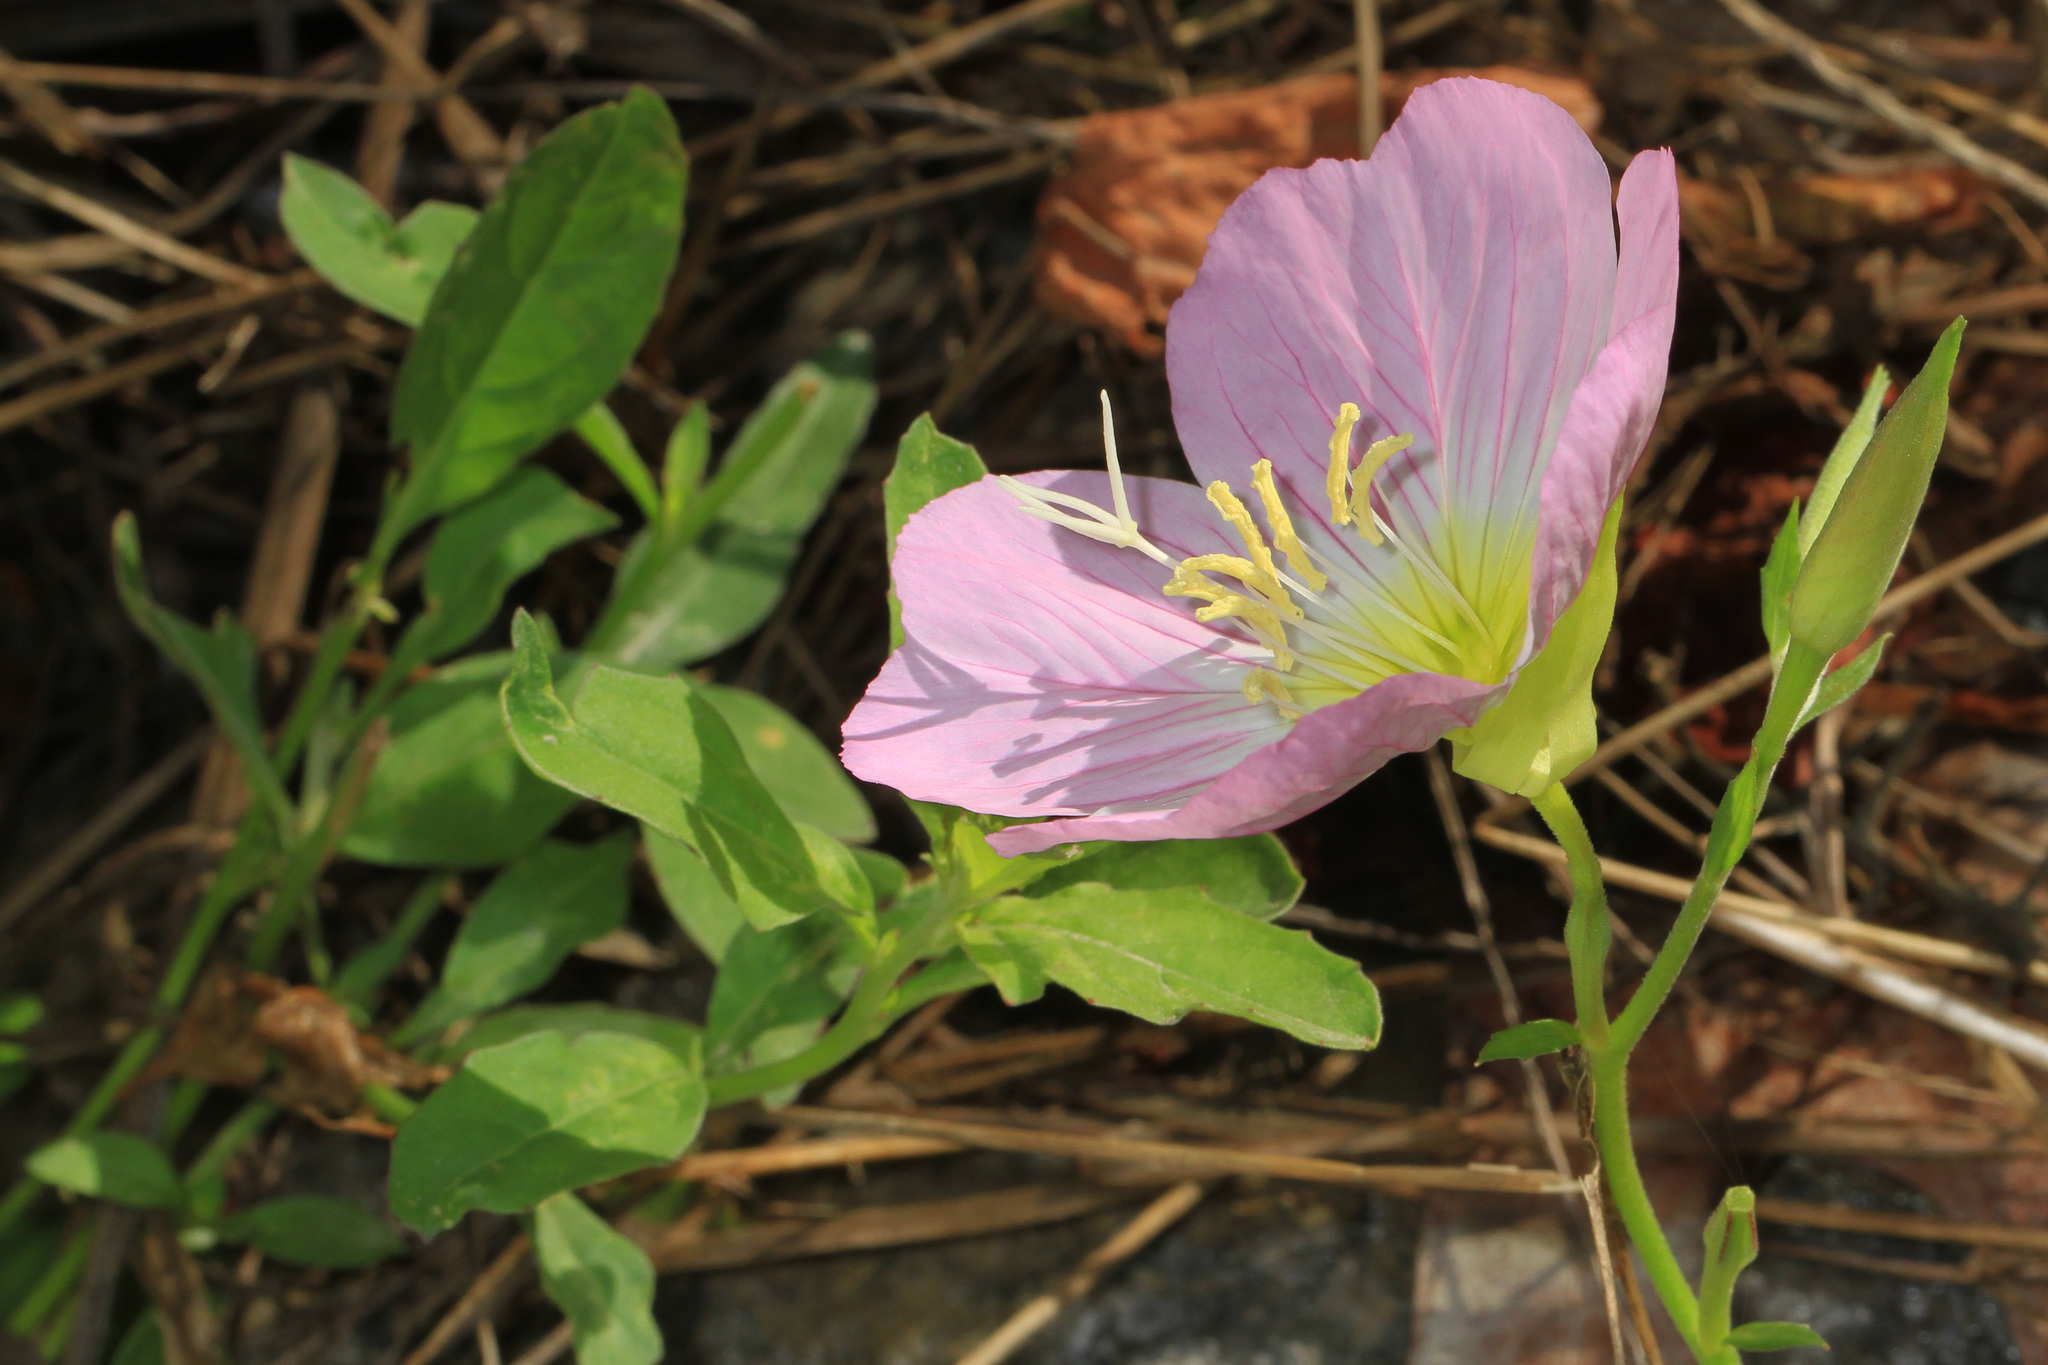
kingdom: Plantae
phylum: Tracheophyta
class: Magnoliopsida
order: Myrtales
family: Onagraceae
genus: Oenothera
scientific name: Oenothera speciosa
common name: White evening-primrose
